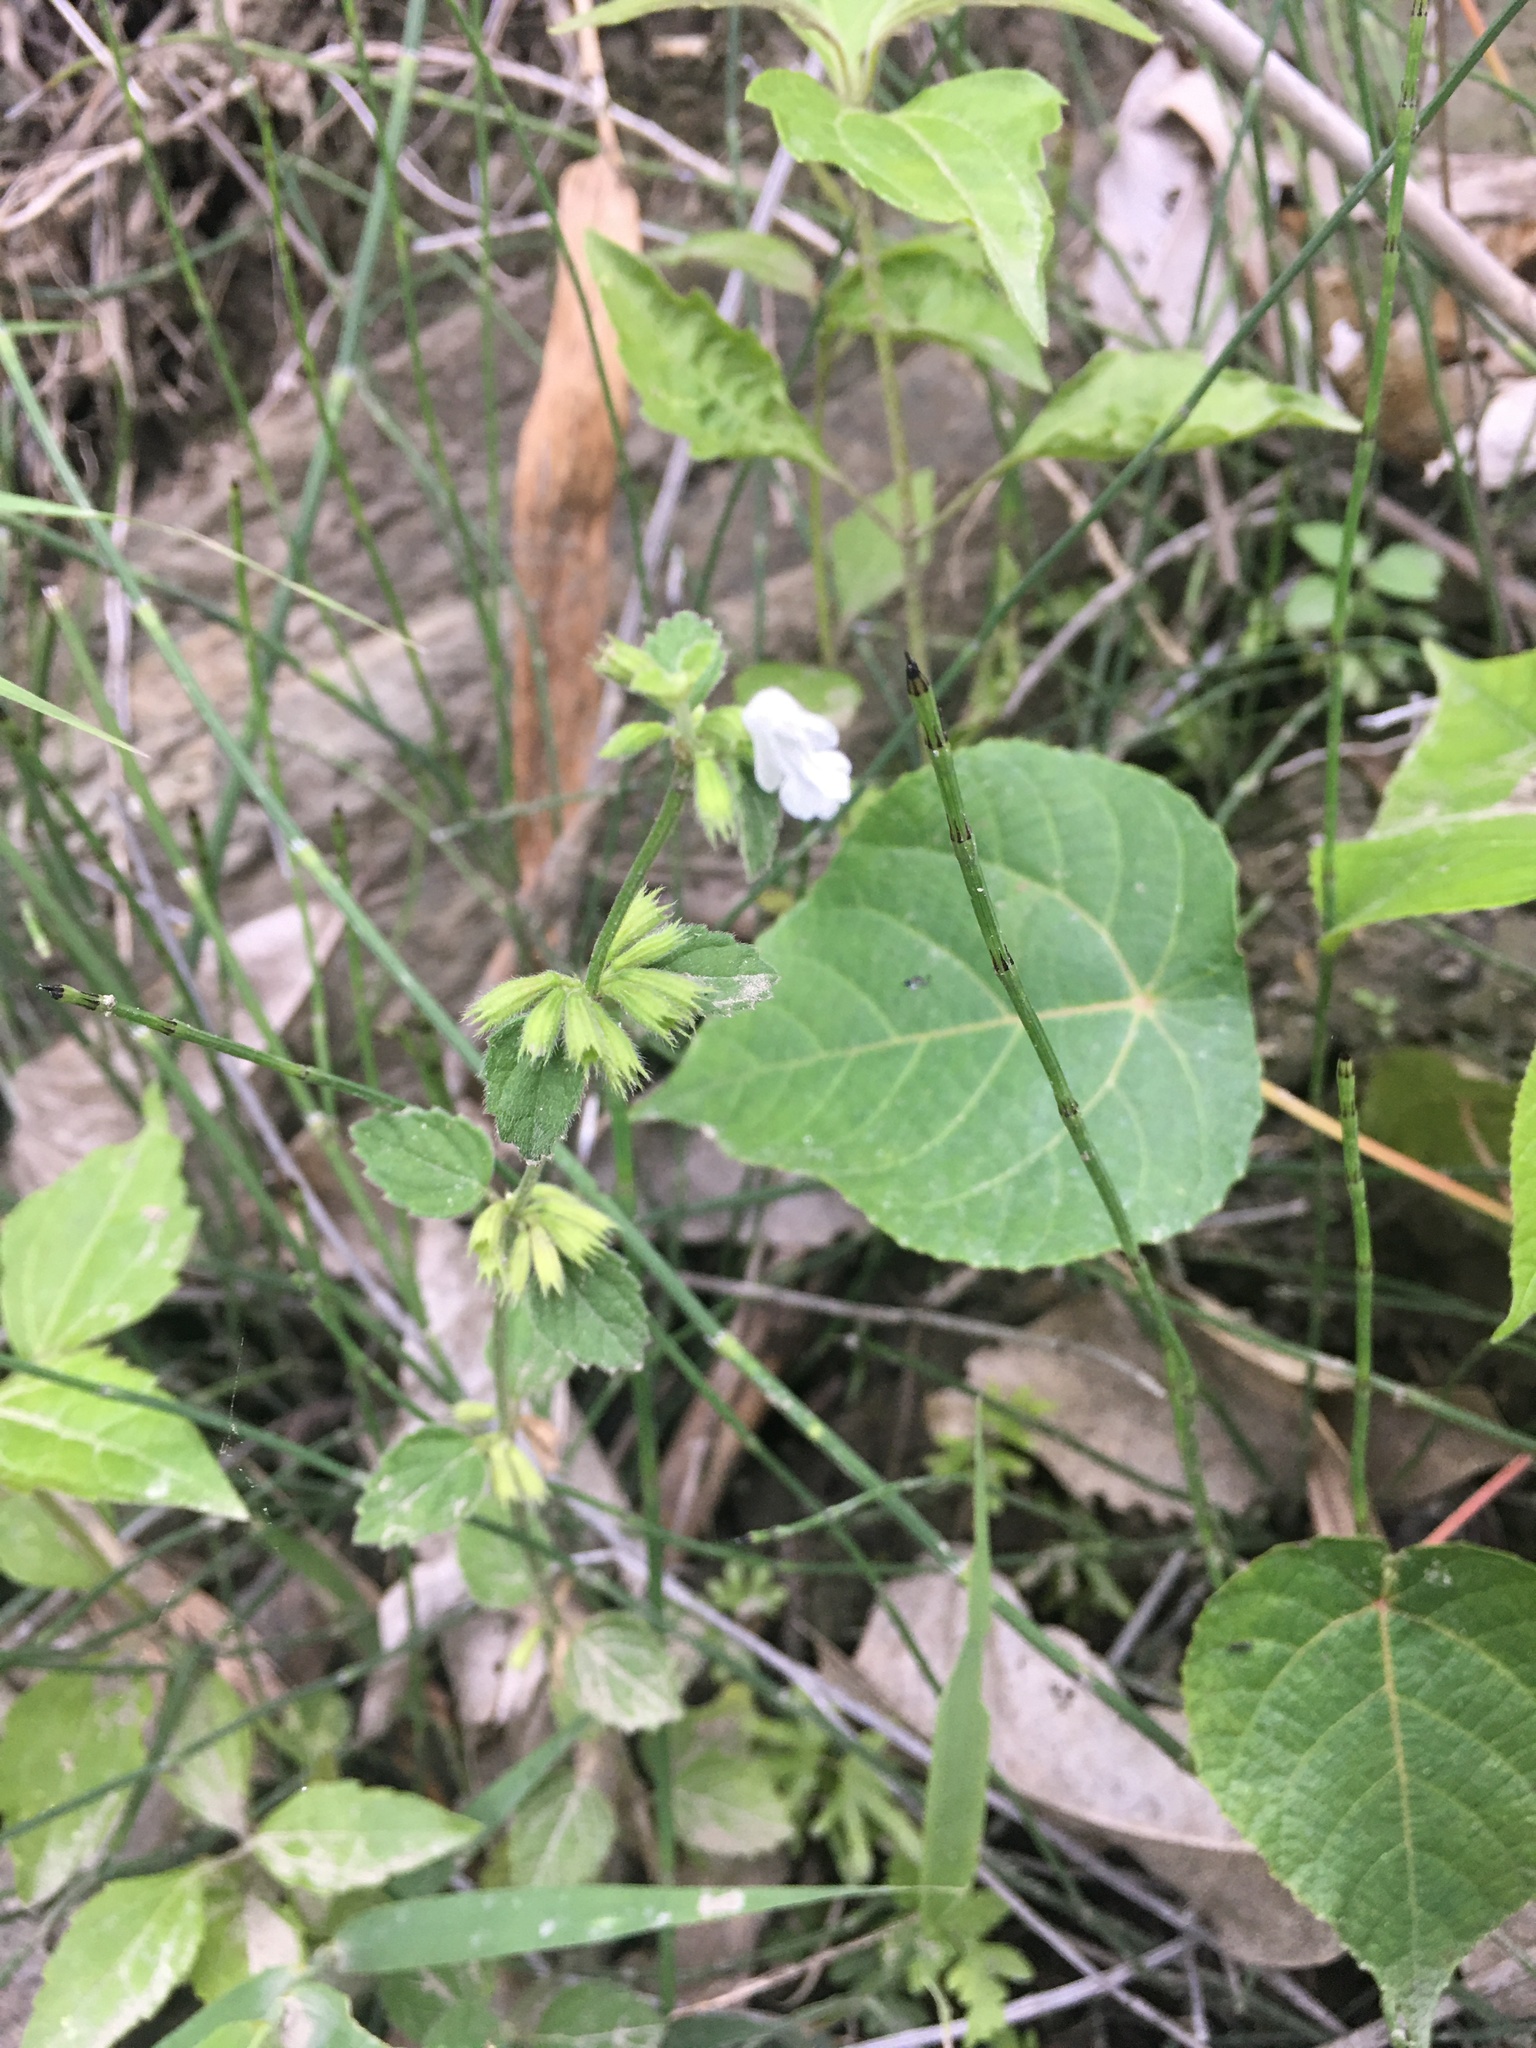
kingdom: Plantae
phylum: Tracheophyta
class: Magnoliopsida
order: Lamiales
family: Lamiaceae
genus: Leucas
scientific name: Leucas chinensis
